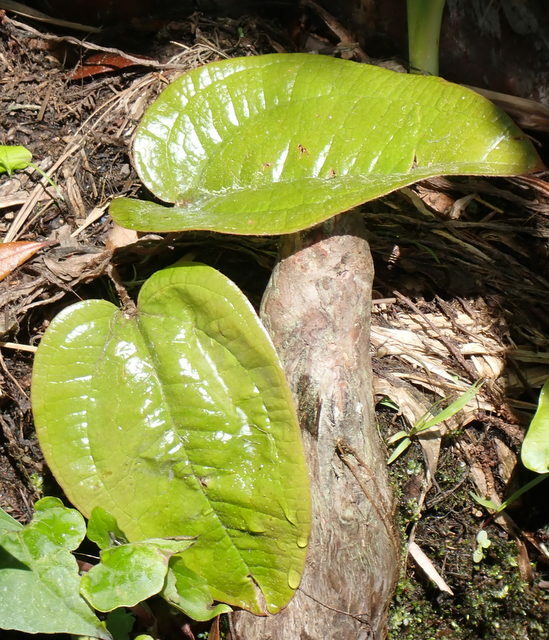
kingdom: Plantae
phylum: Tracheophyta
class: Liliopsida
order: Liliales
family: Smilacaceae
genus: Smilax
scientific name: Smilax pumila
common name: Sarsaparilla-vine
